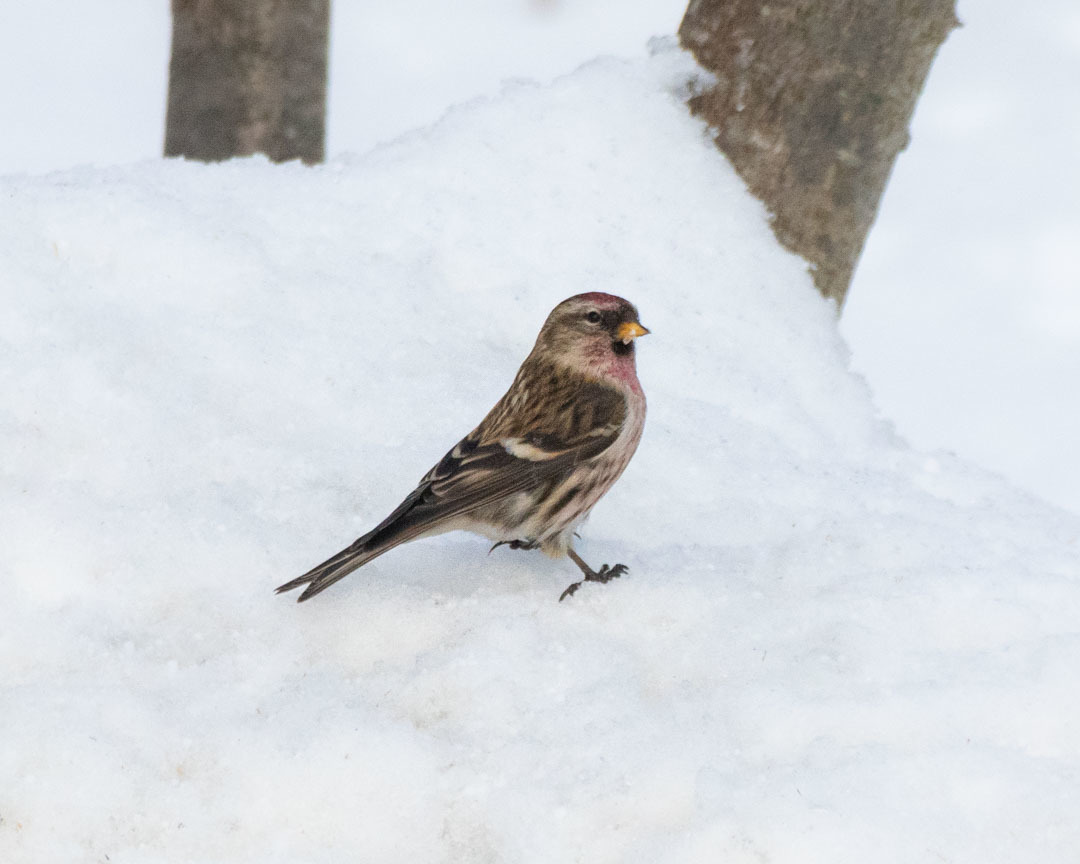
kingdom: Animalia
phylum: Chordata
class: Aves
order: Passeriformes
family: Fringillidae
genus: Acanthis
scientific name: Acanthis flammea
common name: Common redpoll
